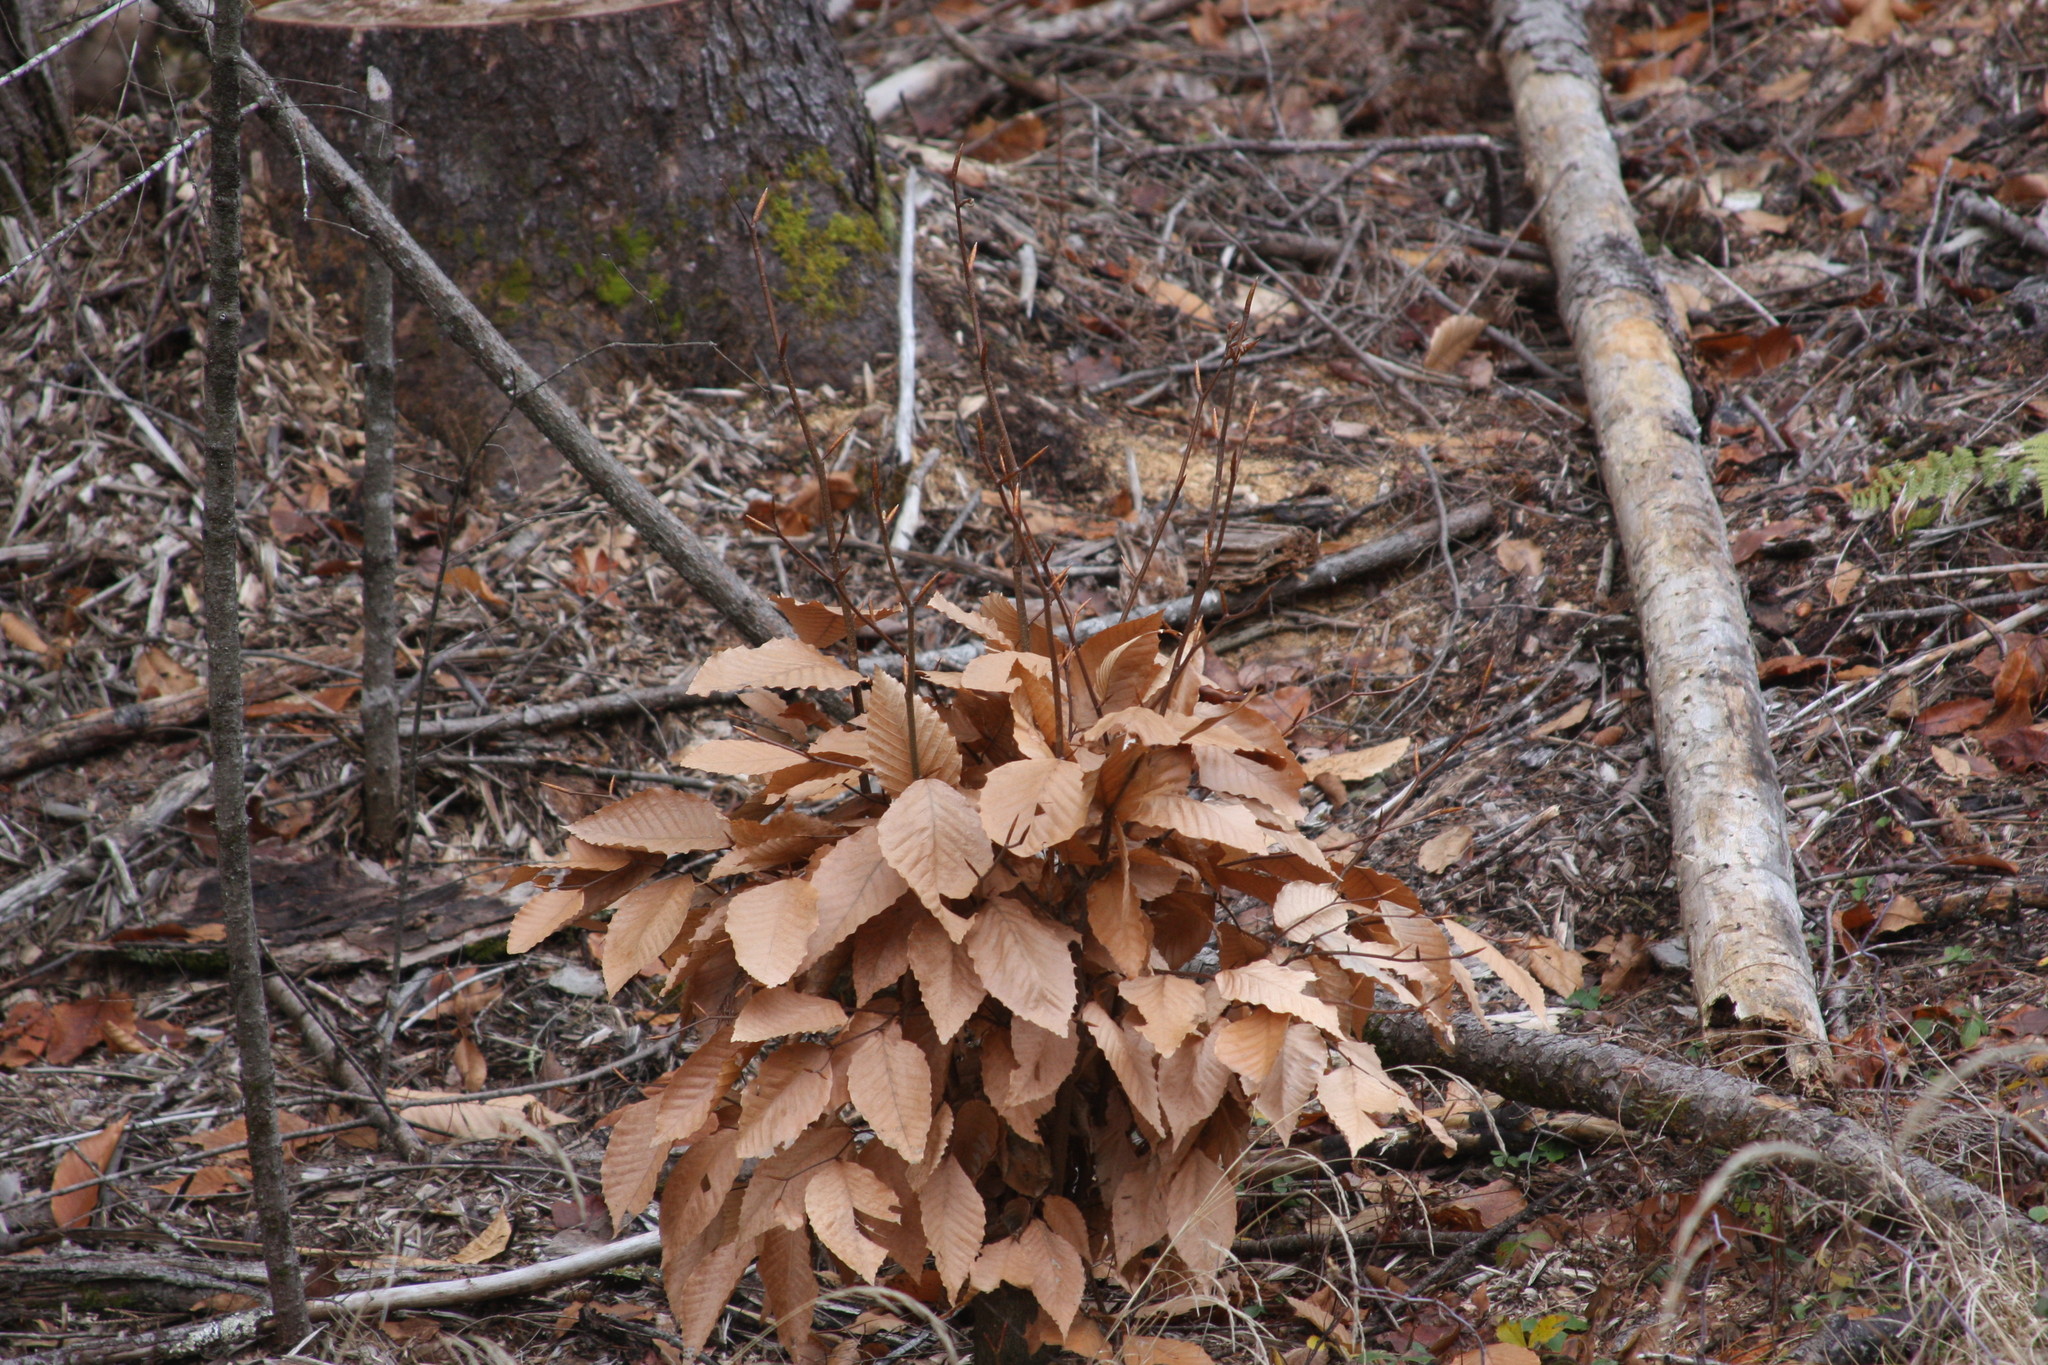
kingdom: Plantae
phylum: Tracheophyta
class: Magnoliopsida
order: Fagales
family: Fagaceae
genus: Fagus
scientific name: Fagus grandifolia
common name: American beech
